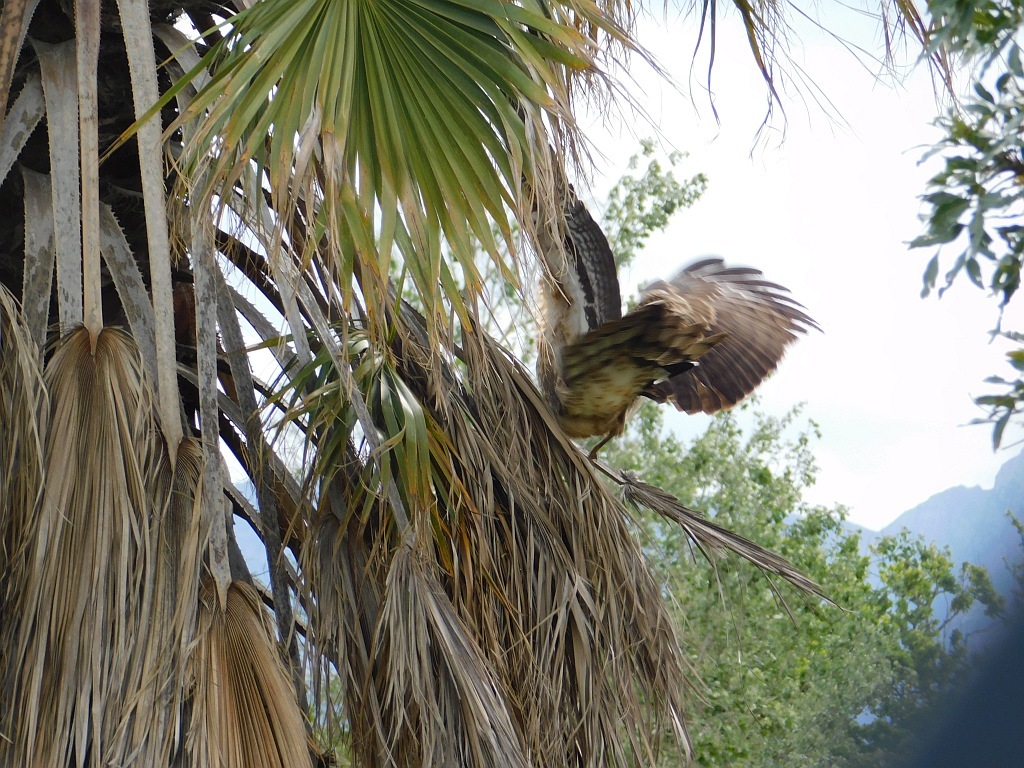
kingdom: Animalia
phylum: Chordata
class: Aves
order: Accipitriformes
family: Accipitridae
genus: Polyboroides
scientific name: Polyboroides typus
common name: African harrier-hawk
